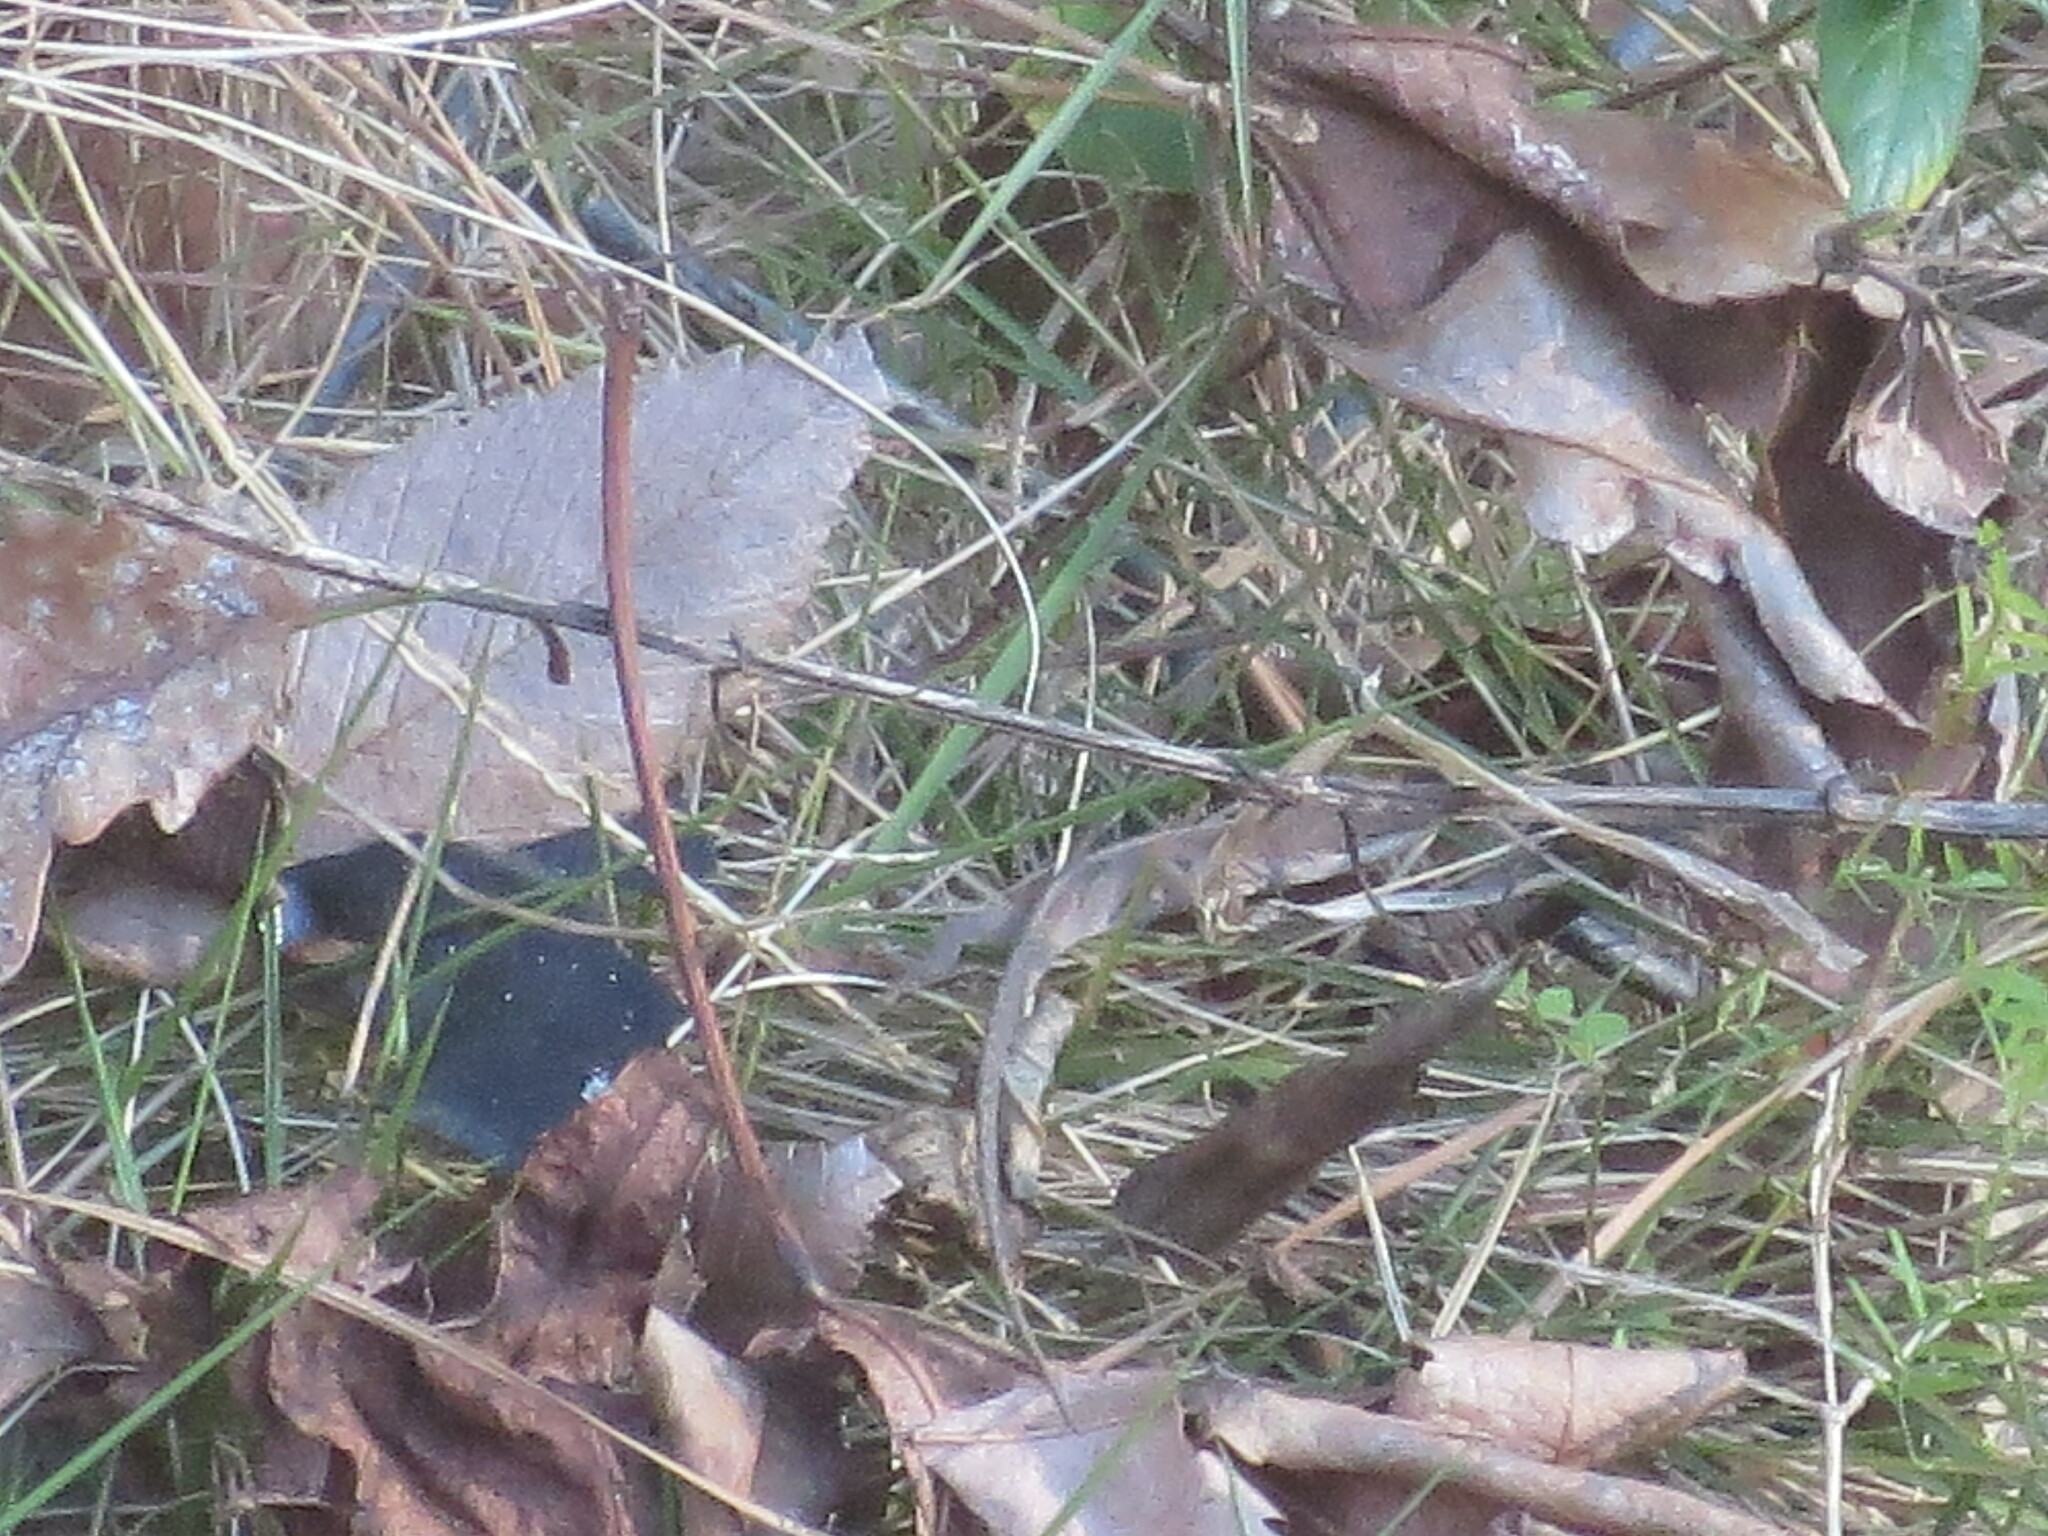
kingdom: Animalia
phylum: Chordata
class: Squamata
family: Dactyloidae
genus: Anolis
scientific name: Anolis carolinensis
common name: Green anole
